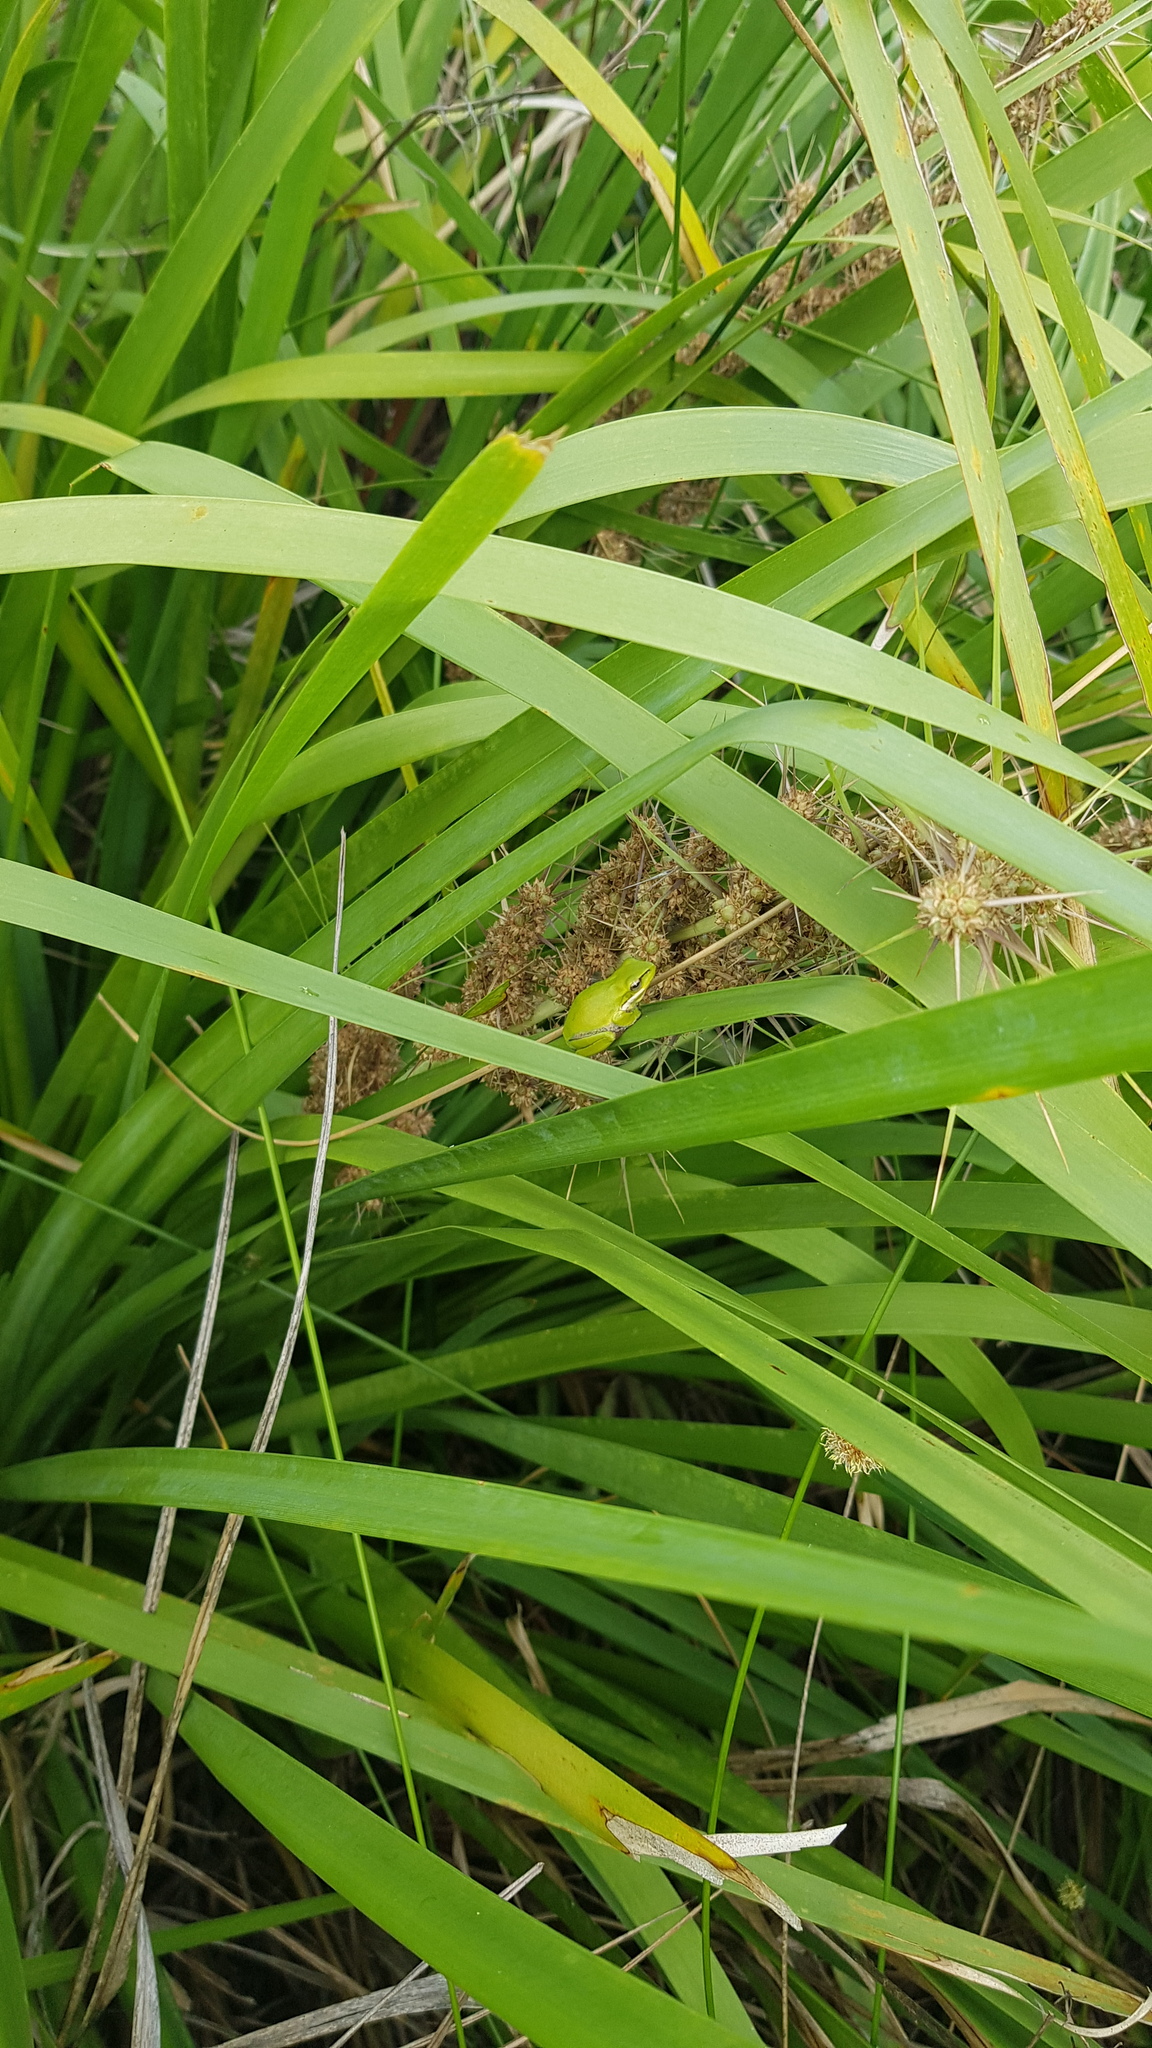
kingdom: Animalia
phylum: Chordata
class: Amphibia
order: Anura
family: Pelodryadidae
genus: Litoria
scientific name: Litoria fallax
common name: Eastern dwarf treefrog
